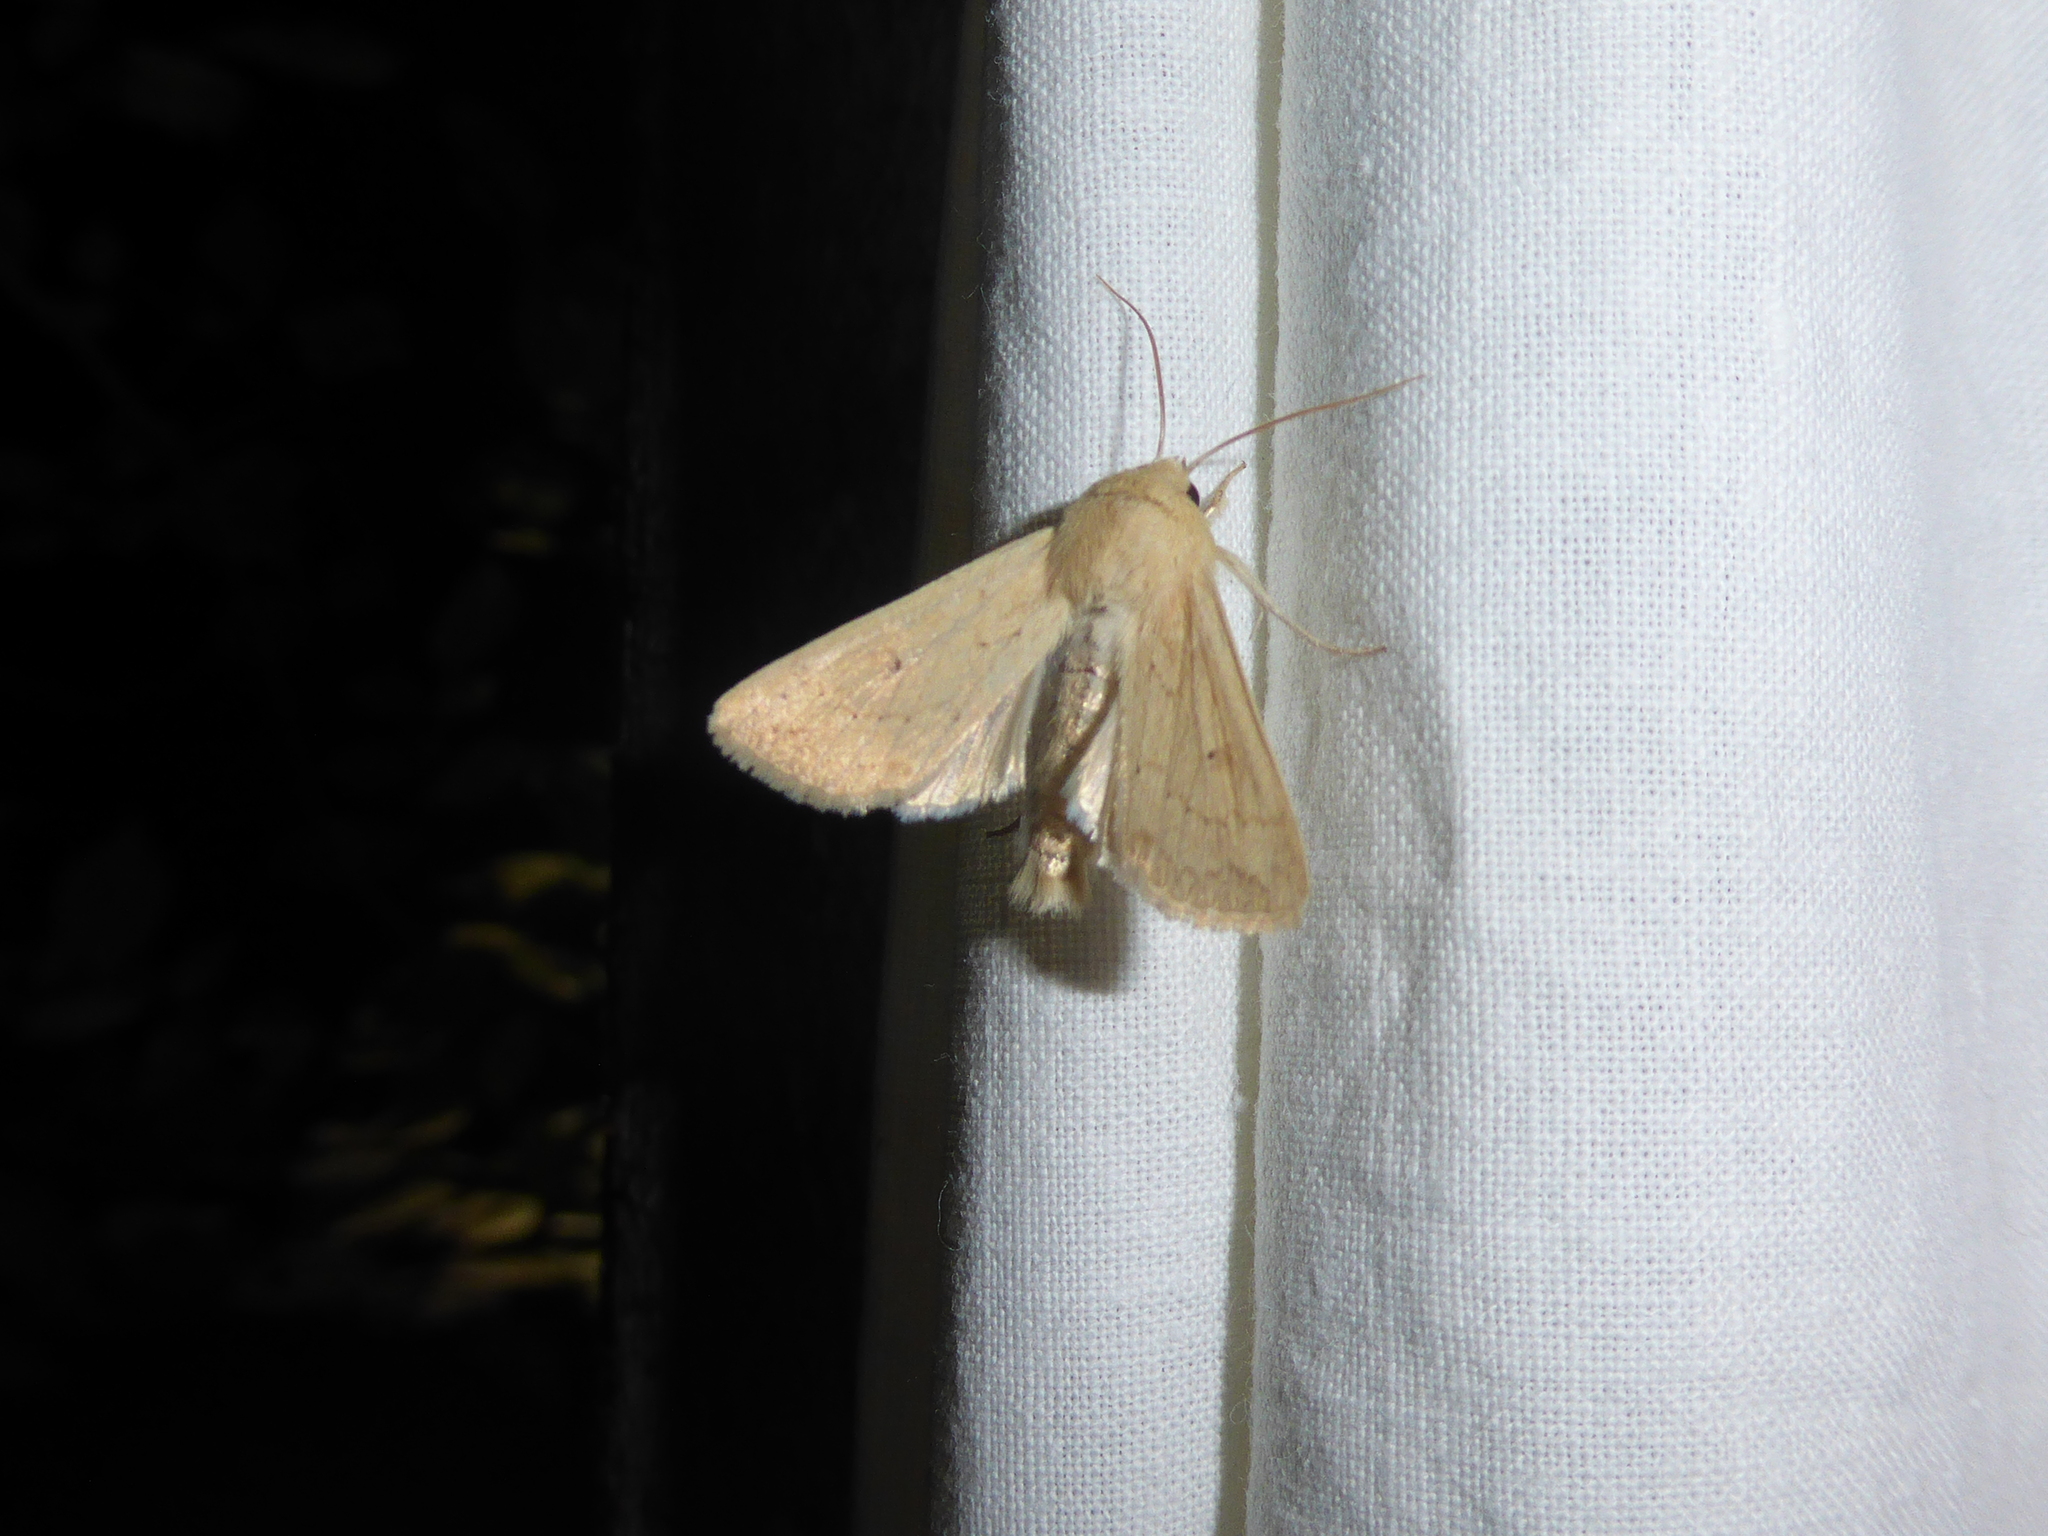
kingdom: Animalia
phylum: Arthropoda
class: Insecta
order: Lepidoptera
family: Noctuidae
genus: Mythimna
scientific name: Mythimna vitellina
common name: Delicate
